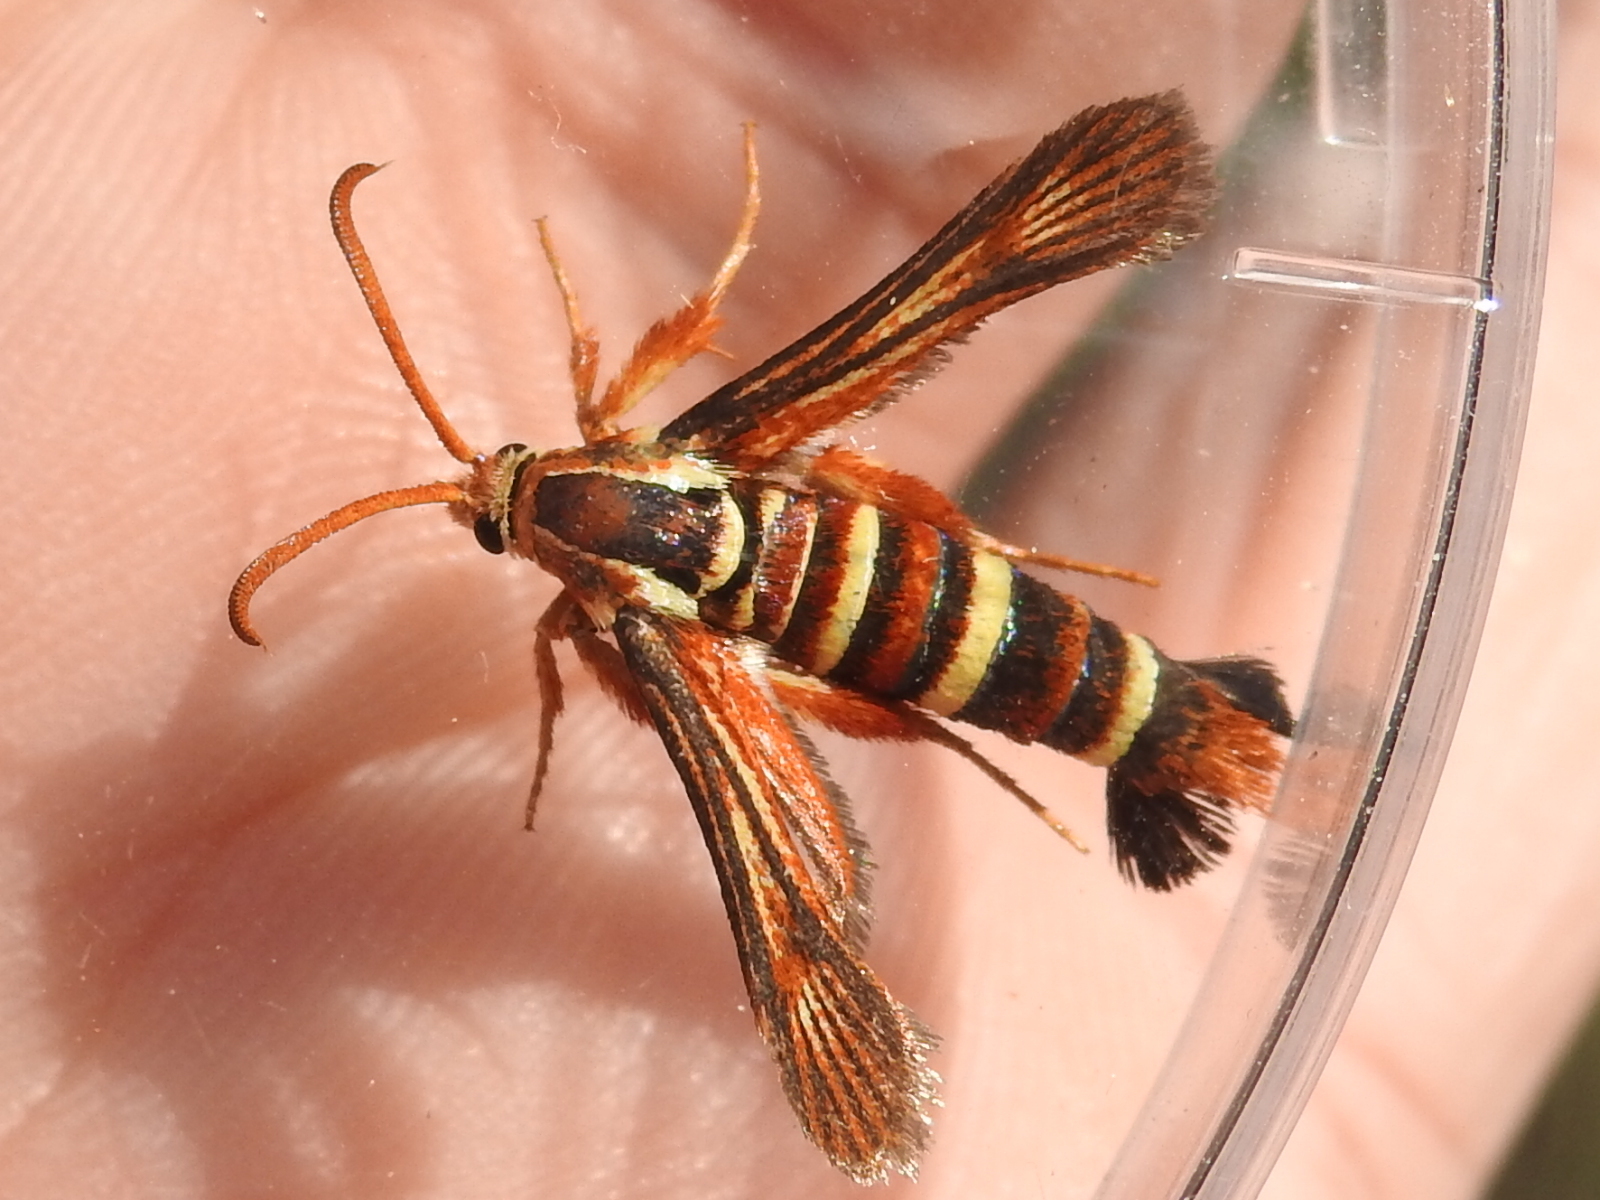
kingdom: Animalia
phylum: Arthropoda
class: Insecta
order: Lepidoptera
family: Sesiidae
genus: Euhagena
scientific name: Euhagena emphytiformis
